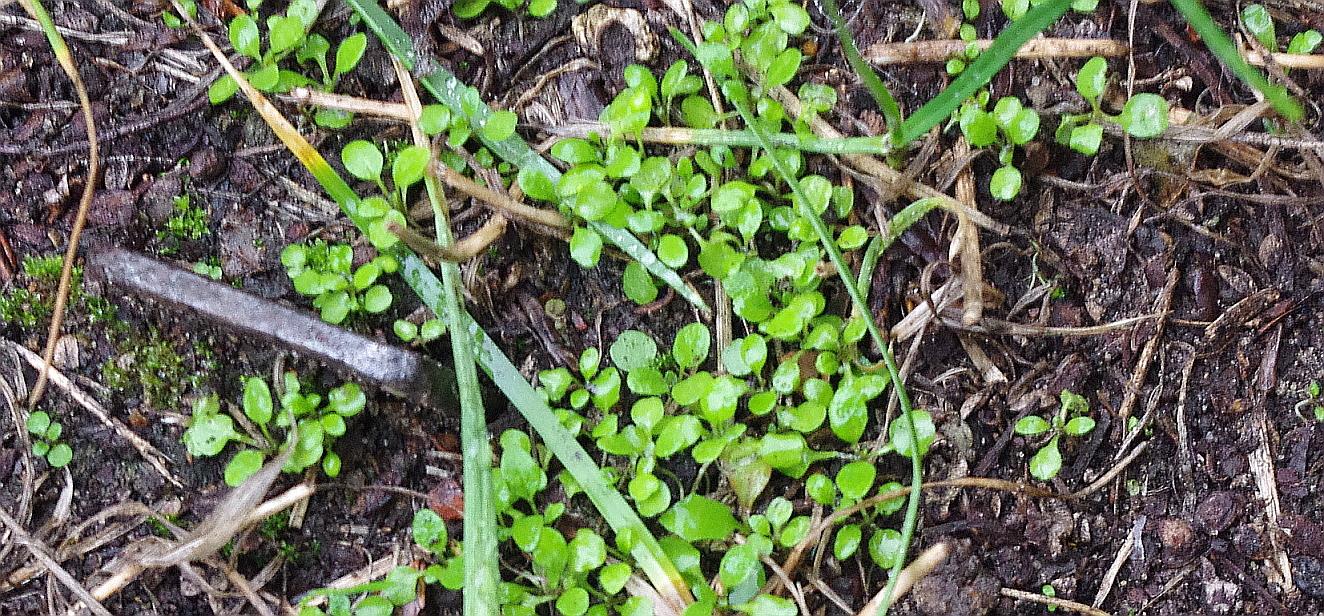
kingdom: Plantae
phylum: Tracheophyta
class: Magnoliopsida
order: Caryophyllales
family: Caryophyllaceae
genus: Stellaria
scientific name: Stellaria media
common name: Common chickweed
